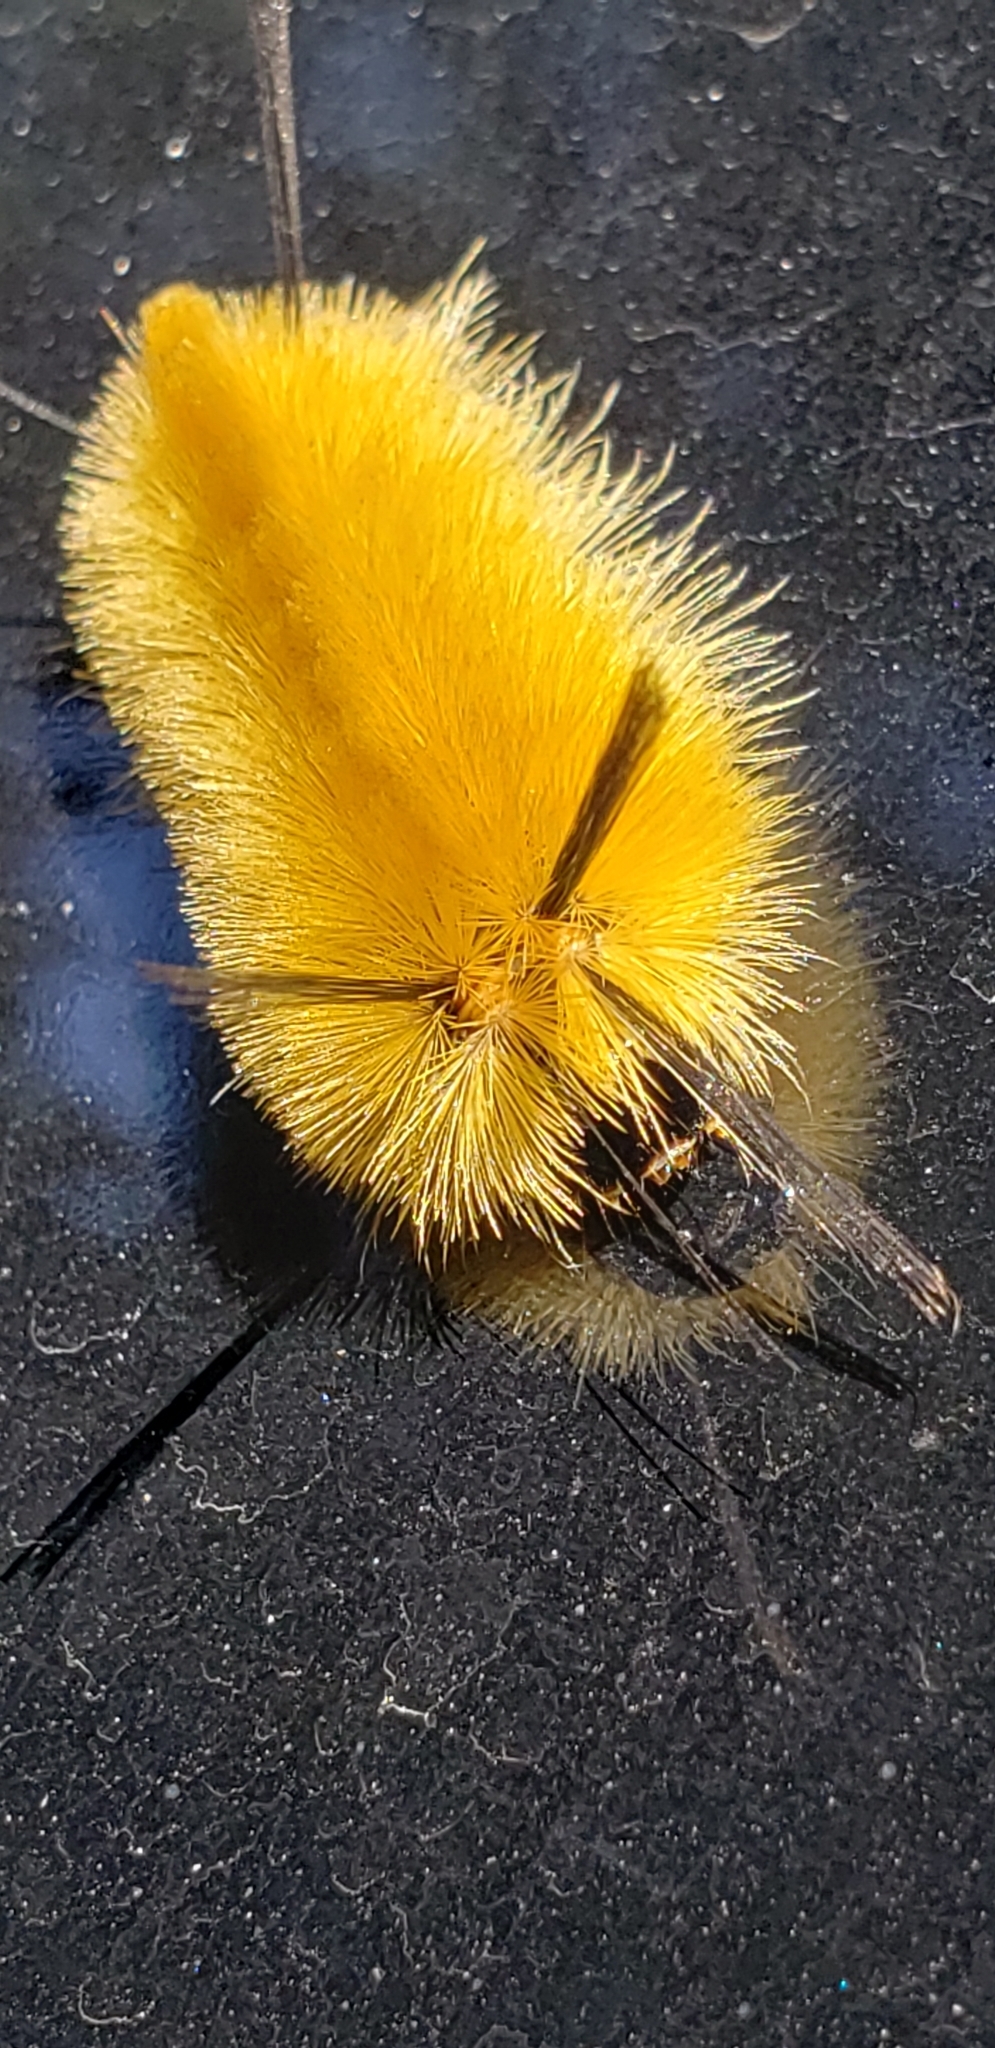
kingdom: Animalia
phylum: Arthropoda
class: Insecta
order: Lepidoptera
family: Erebidae
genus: Halysidota
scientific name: Halysidota tessellaris
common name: Banded tussock moth
